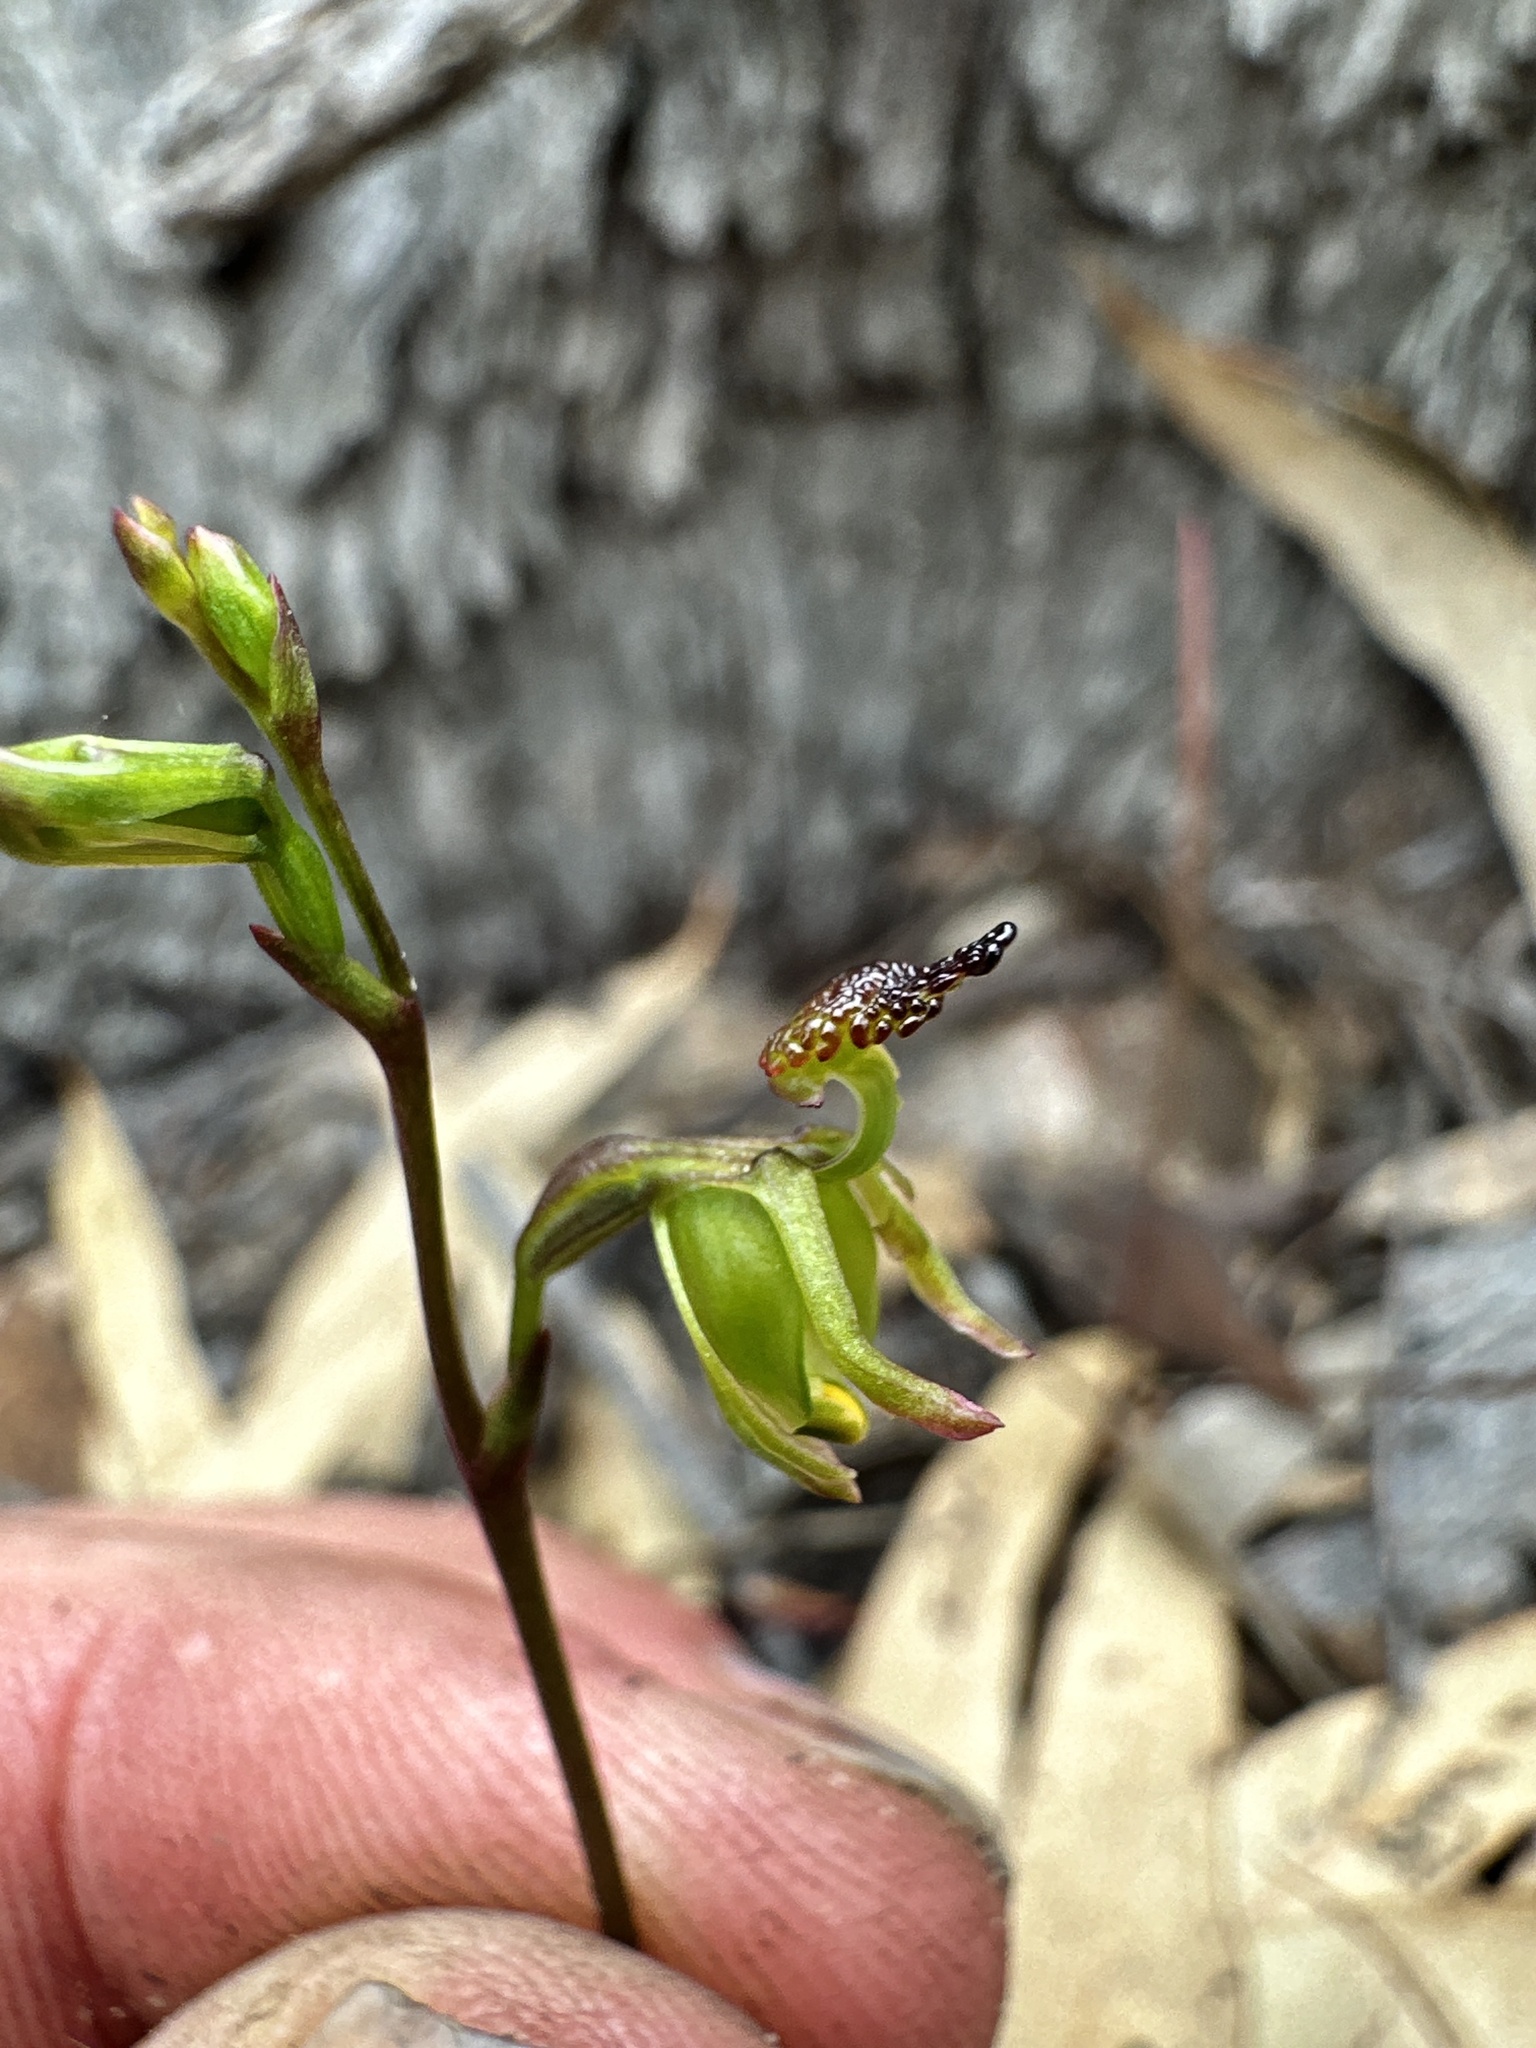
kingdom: Plantae
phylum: Tracheophyta
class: Liliopsida
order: Asparagales
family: Orchidaceae
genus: Caleana
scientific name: Caleana minor
